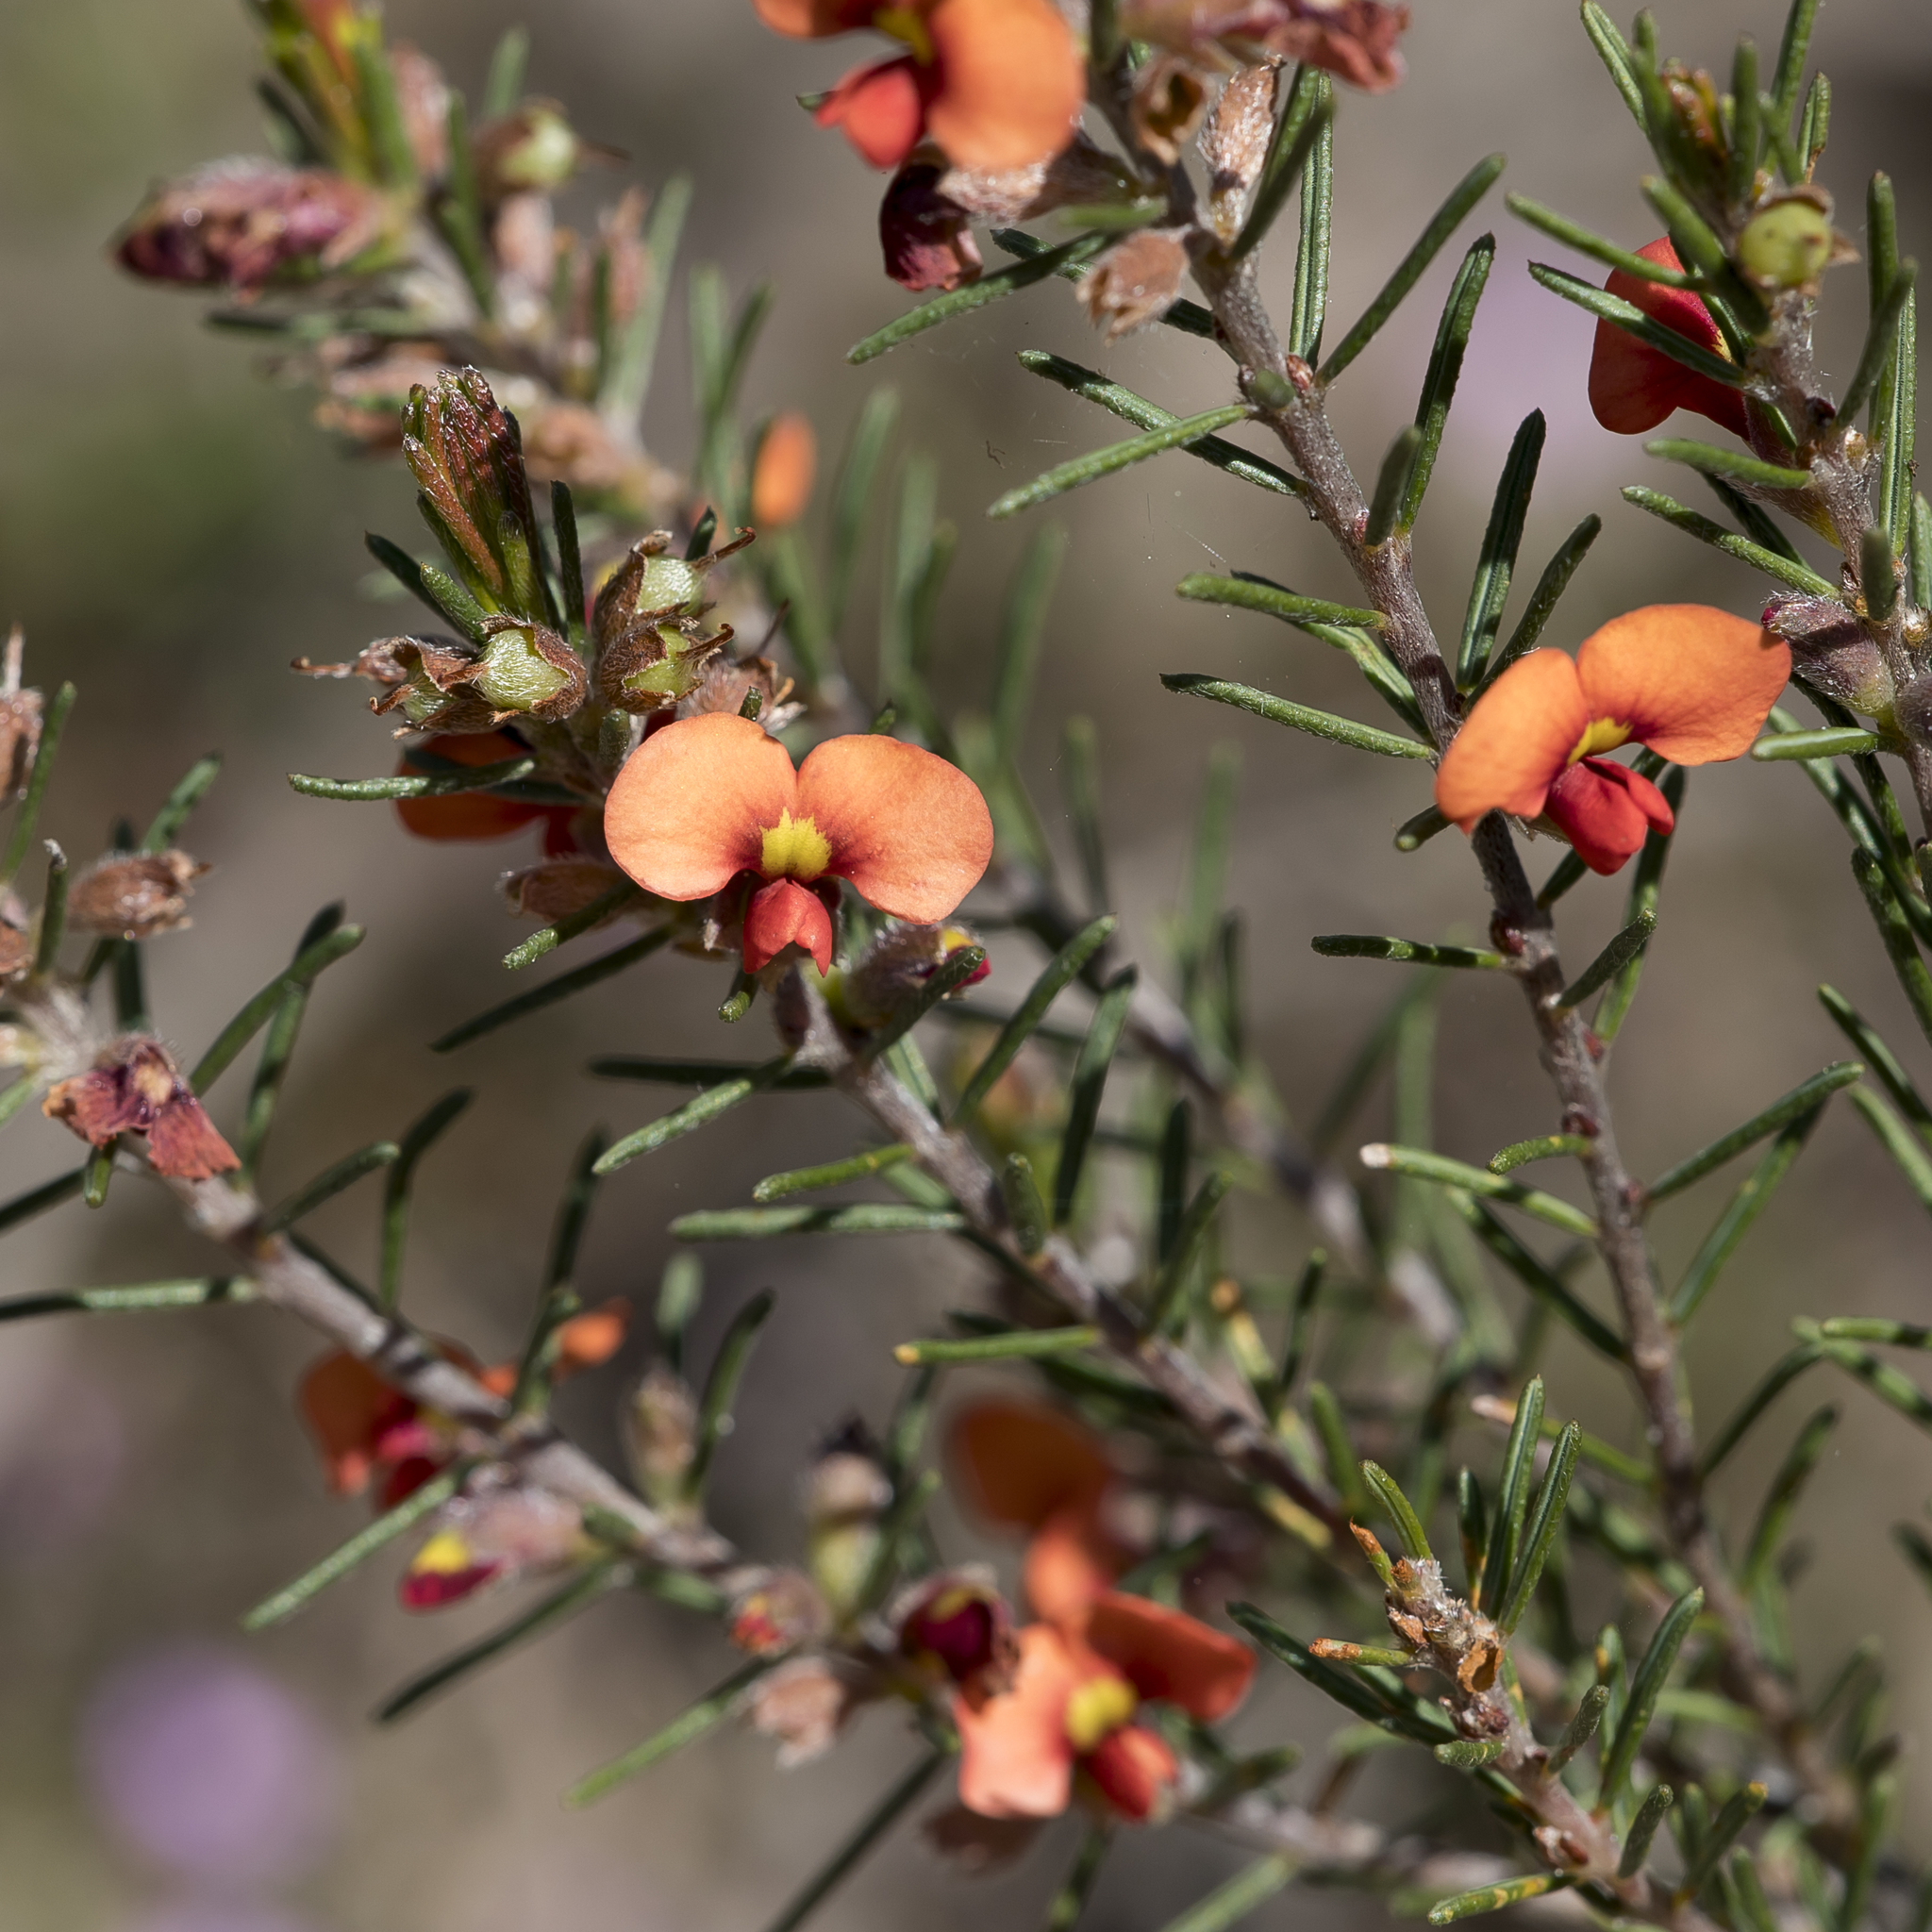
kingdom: Plantae
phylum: Tracheophyta
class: Magnoliopsida
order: Fabales
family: Fabaceae
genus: Dillwynia
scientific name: Dillwynia sericea
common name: Showy parrot-pea
